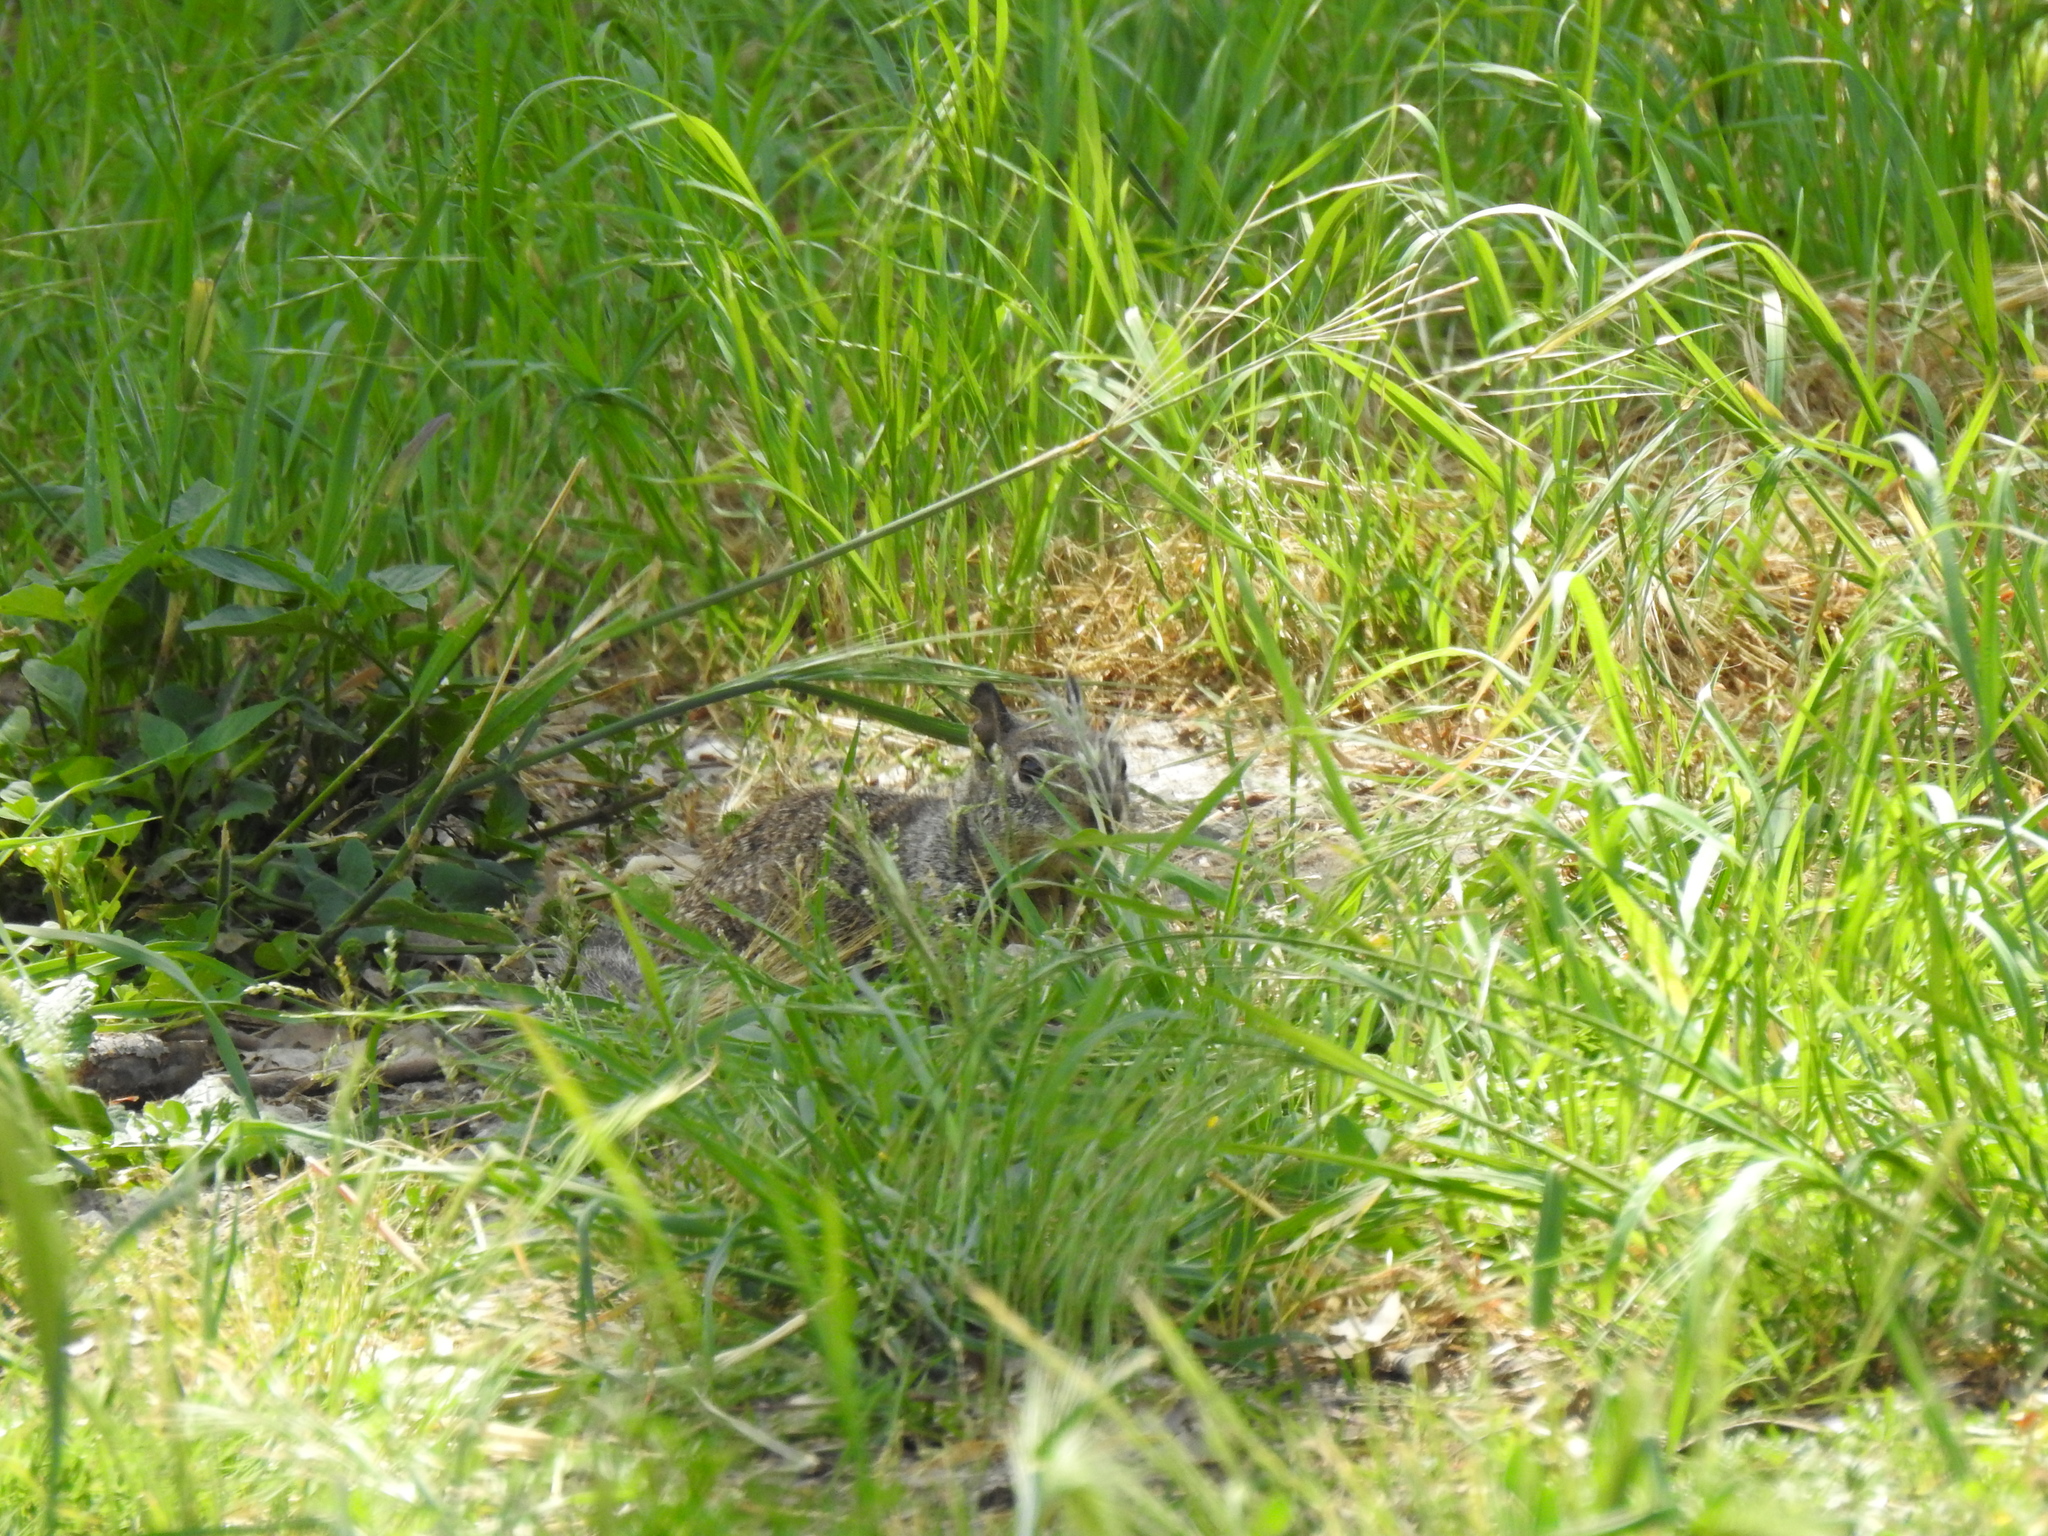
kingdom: Animalia
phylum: Chordata
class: Mammalia
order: Rodentia
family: Sciuridae
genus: Otospermophilus
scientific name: Otospermophilus beecheyi
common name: California ground squirrel
